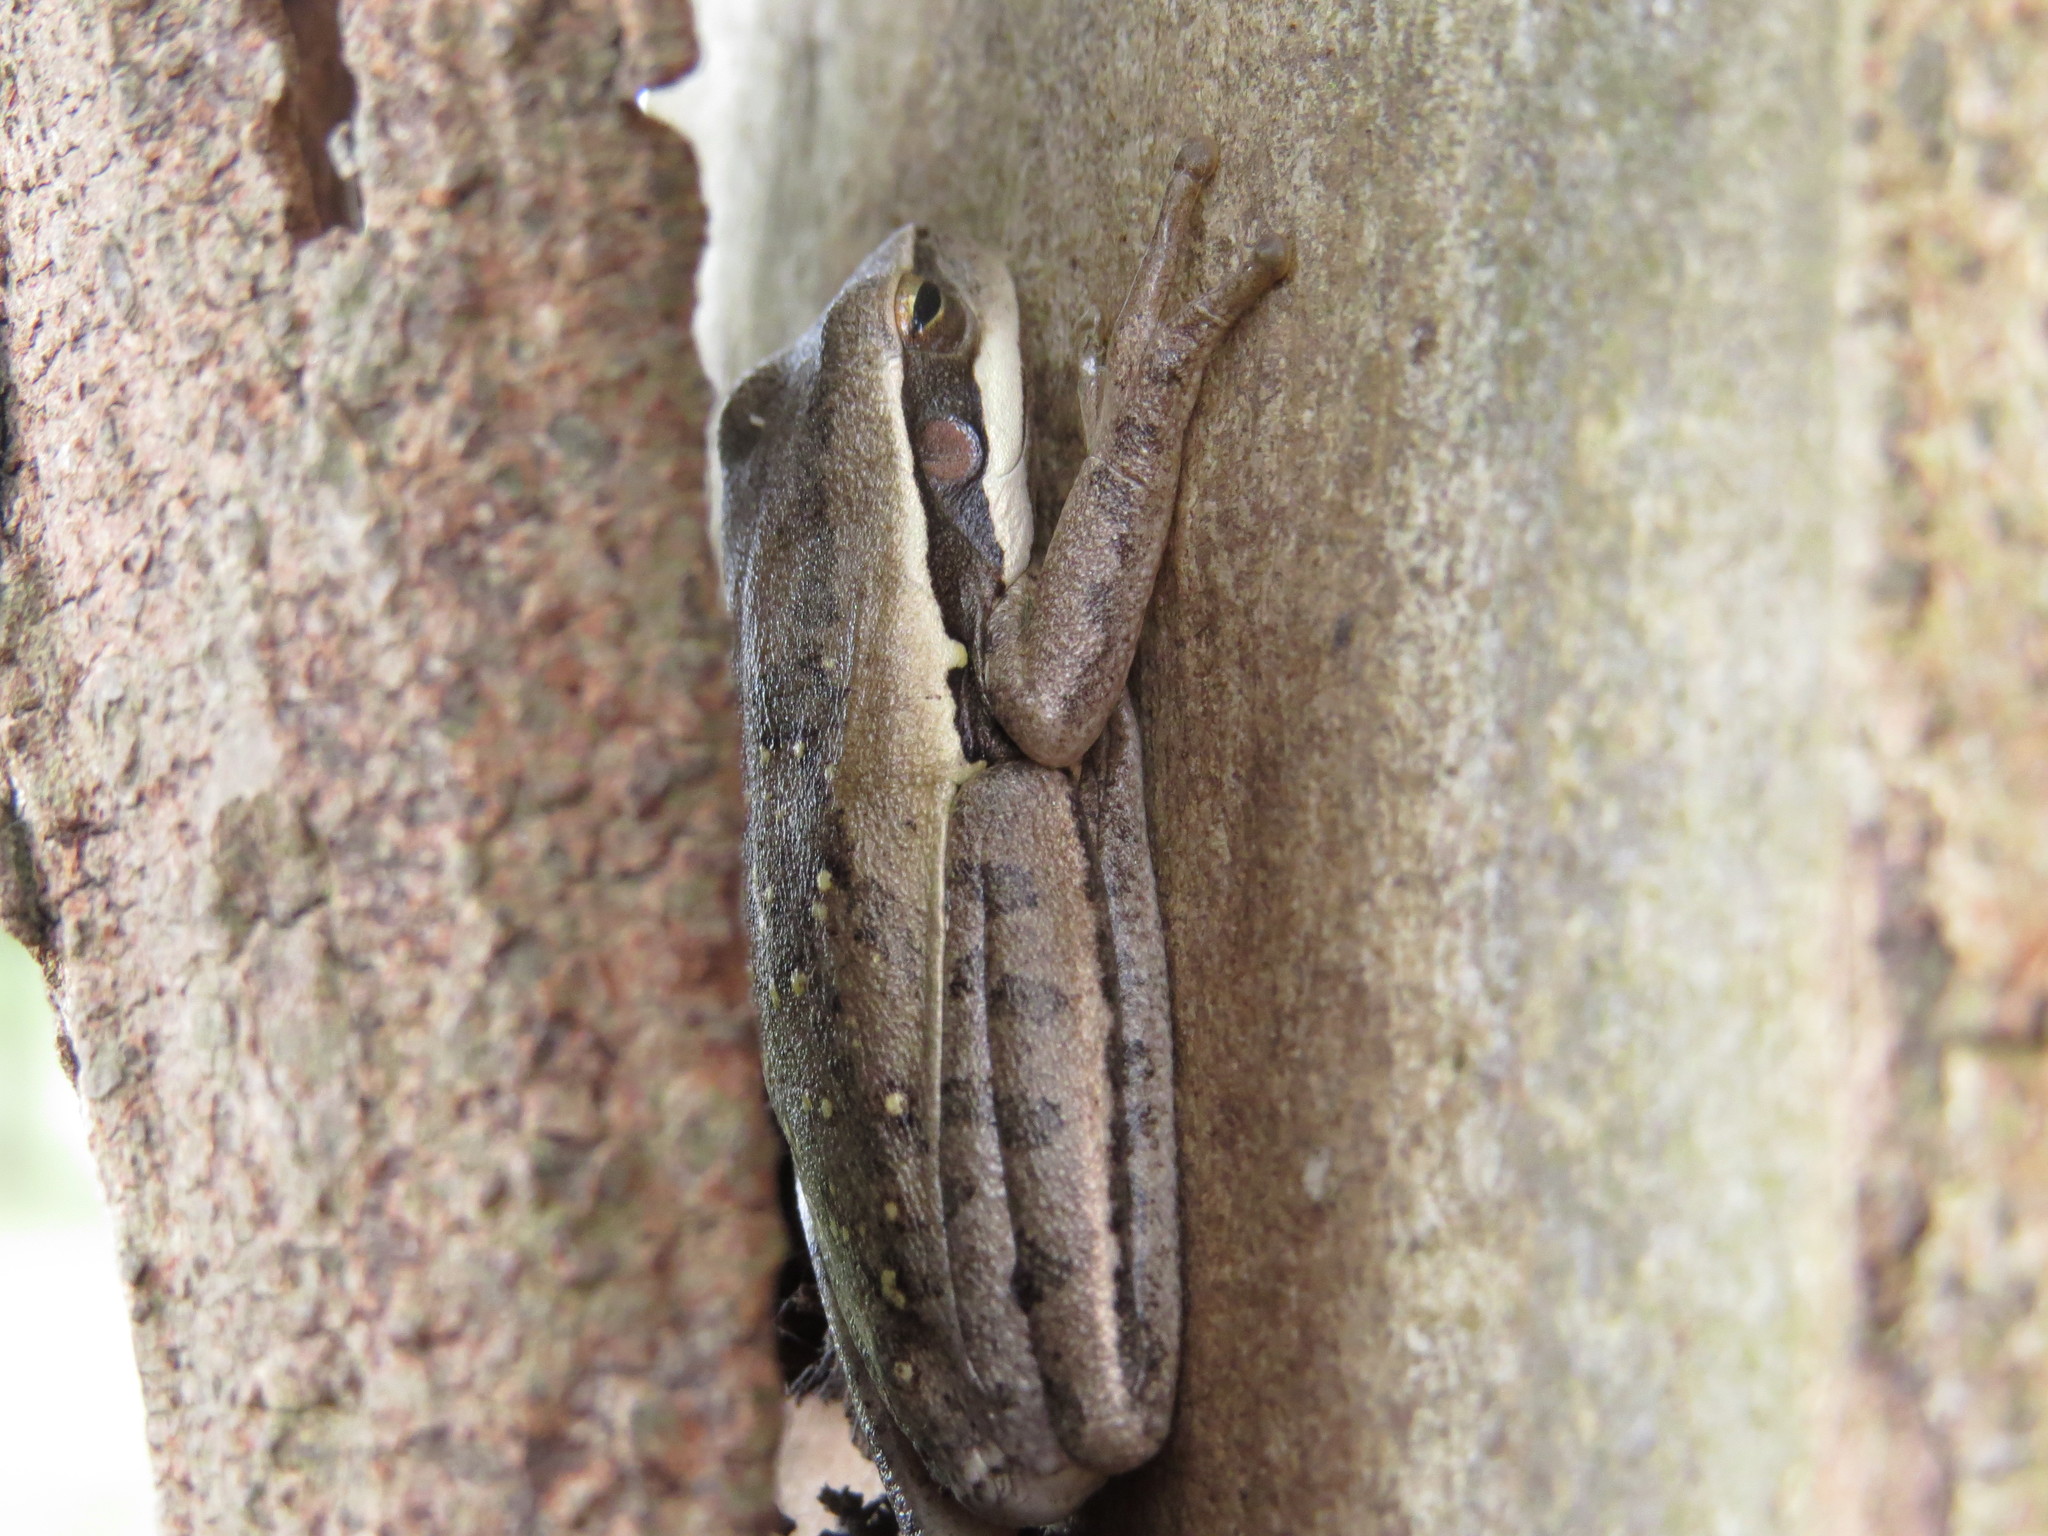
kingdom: Animalia
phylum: Chordata
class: Amphibia
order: Anura
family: Hylidae
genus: Boana
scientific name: Boana pulchella
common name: Montevideo treefrog
